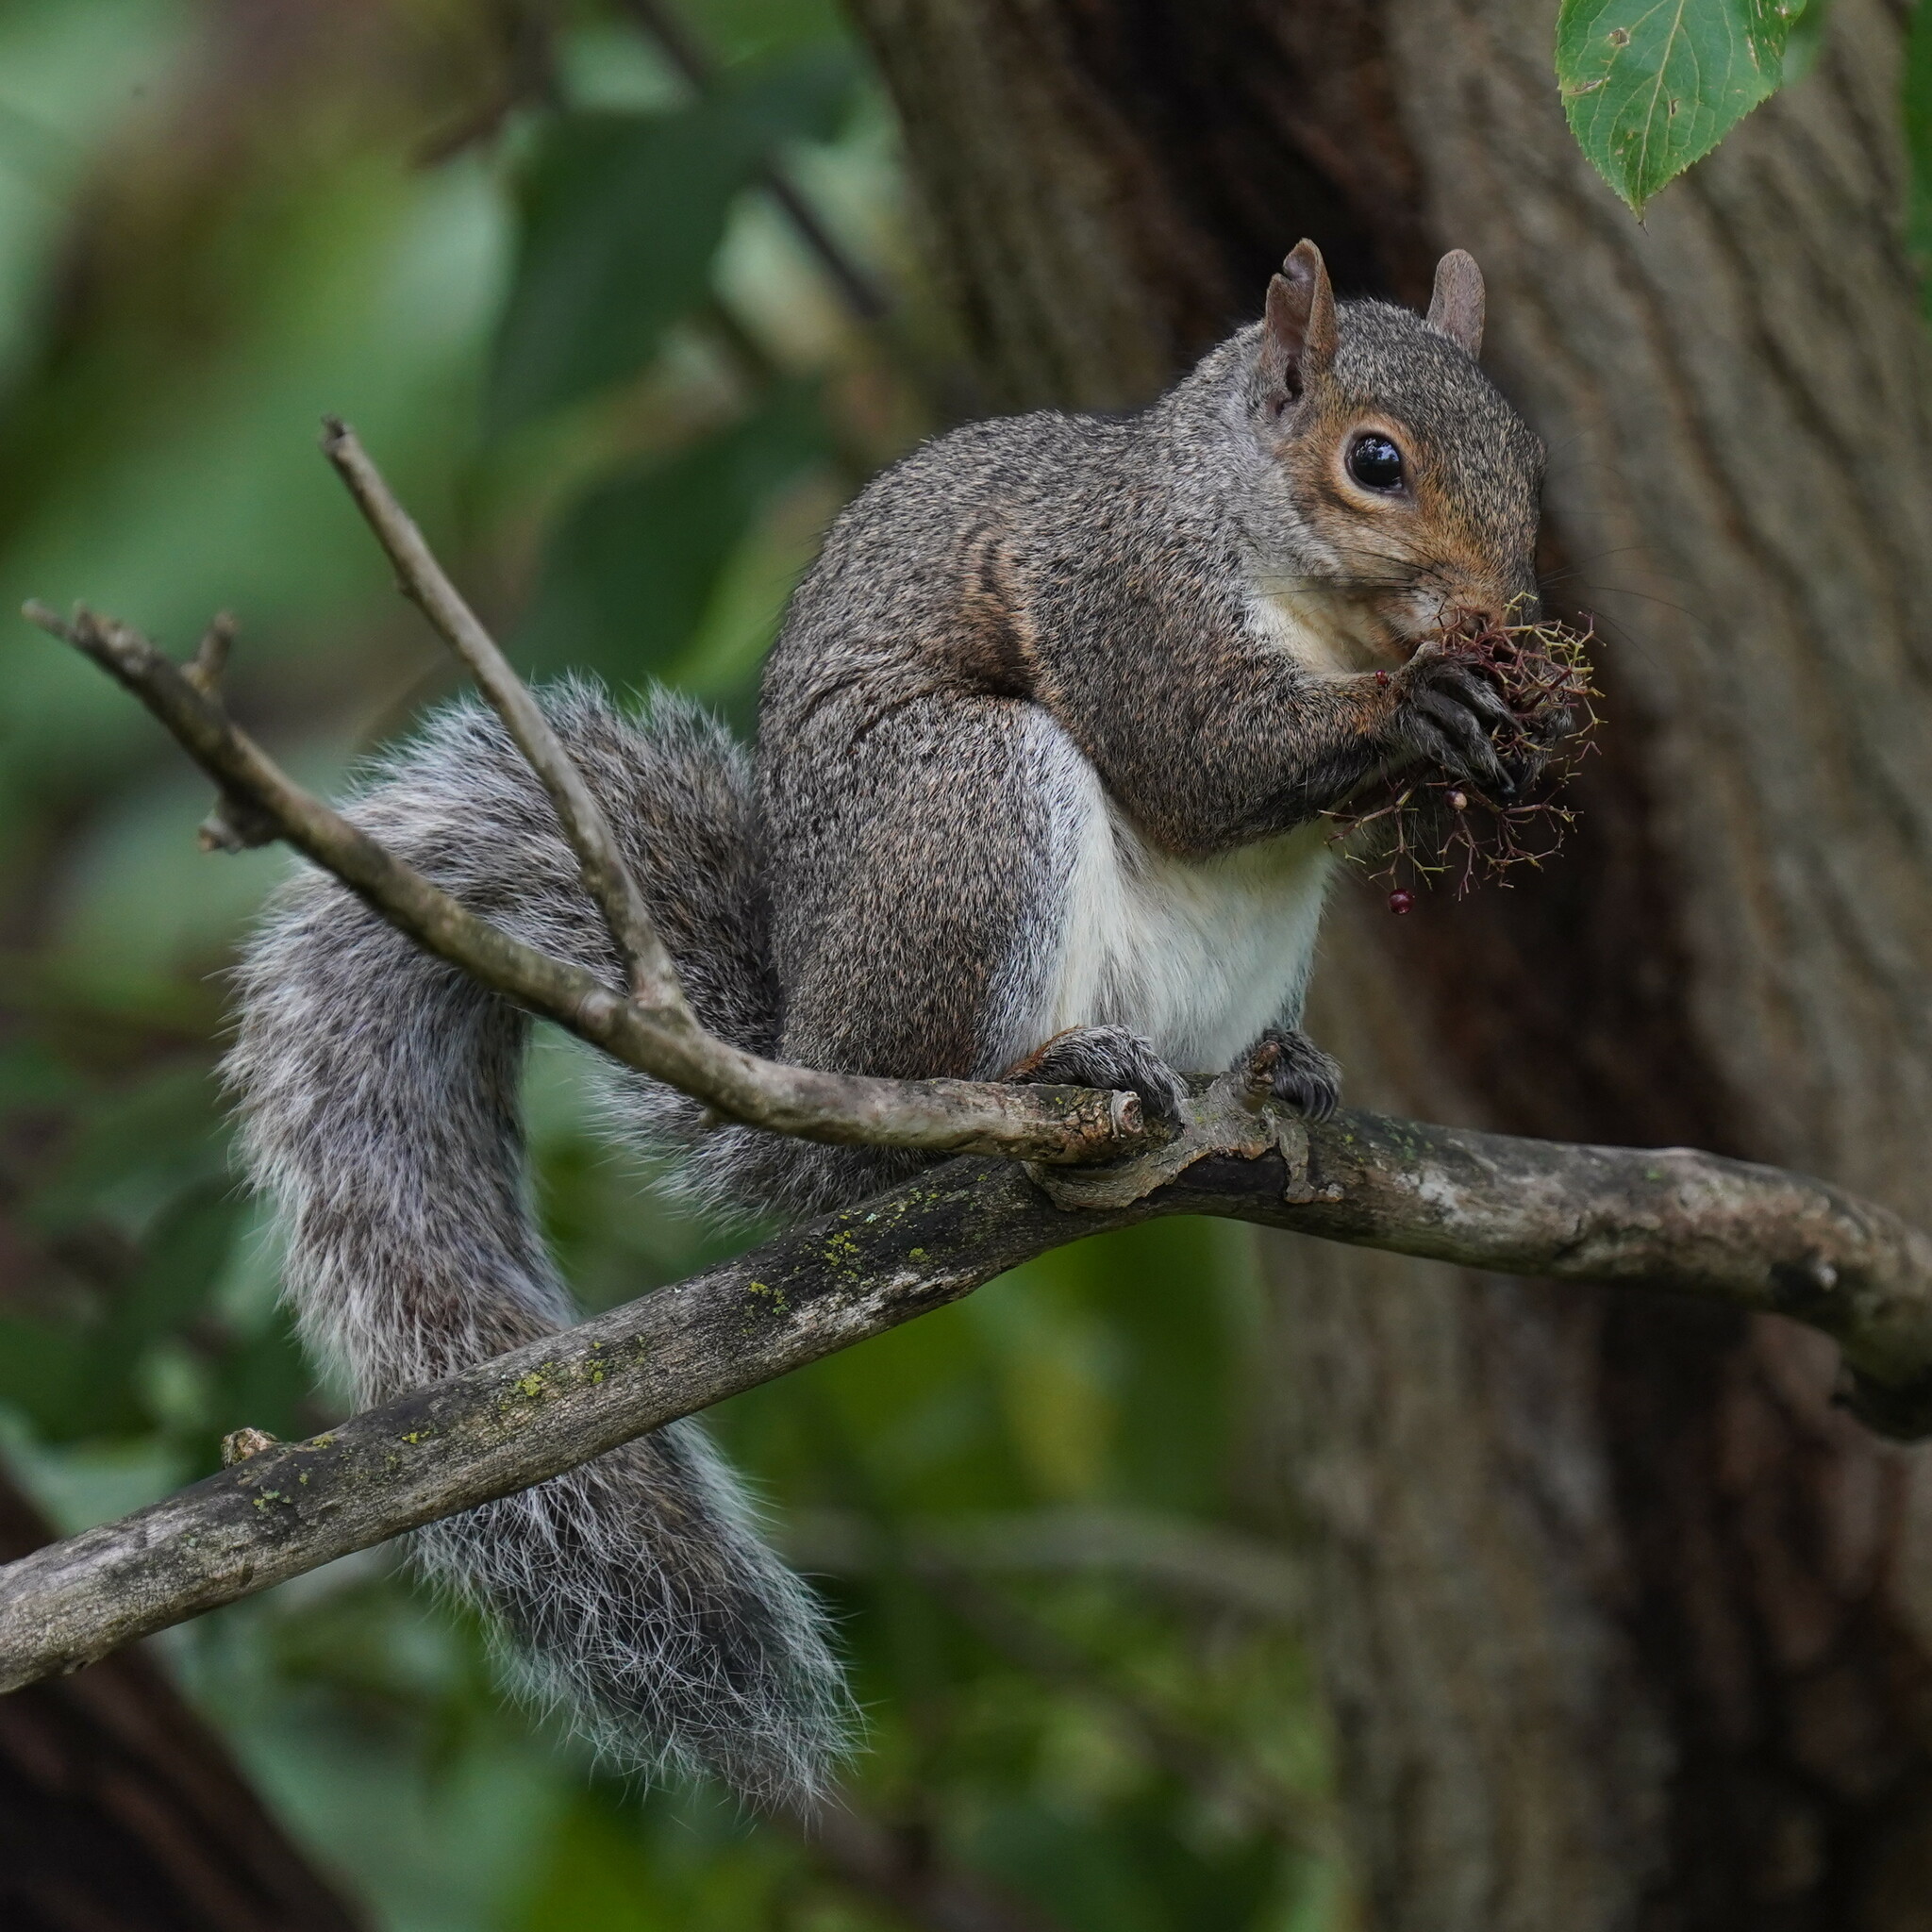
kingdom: Animalia
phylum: Chordata
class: Mammalia
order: Rodentia
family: Sciuridae
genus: Sciurus
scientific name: Sciurus carolinensis
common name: Eastern gray squirrel
